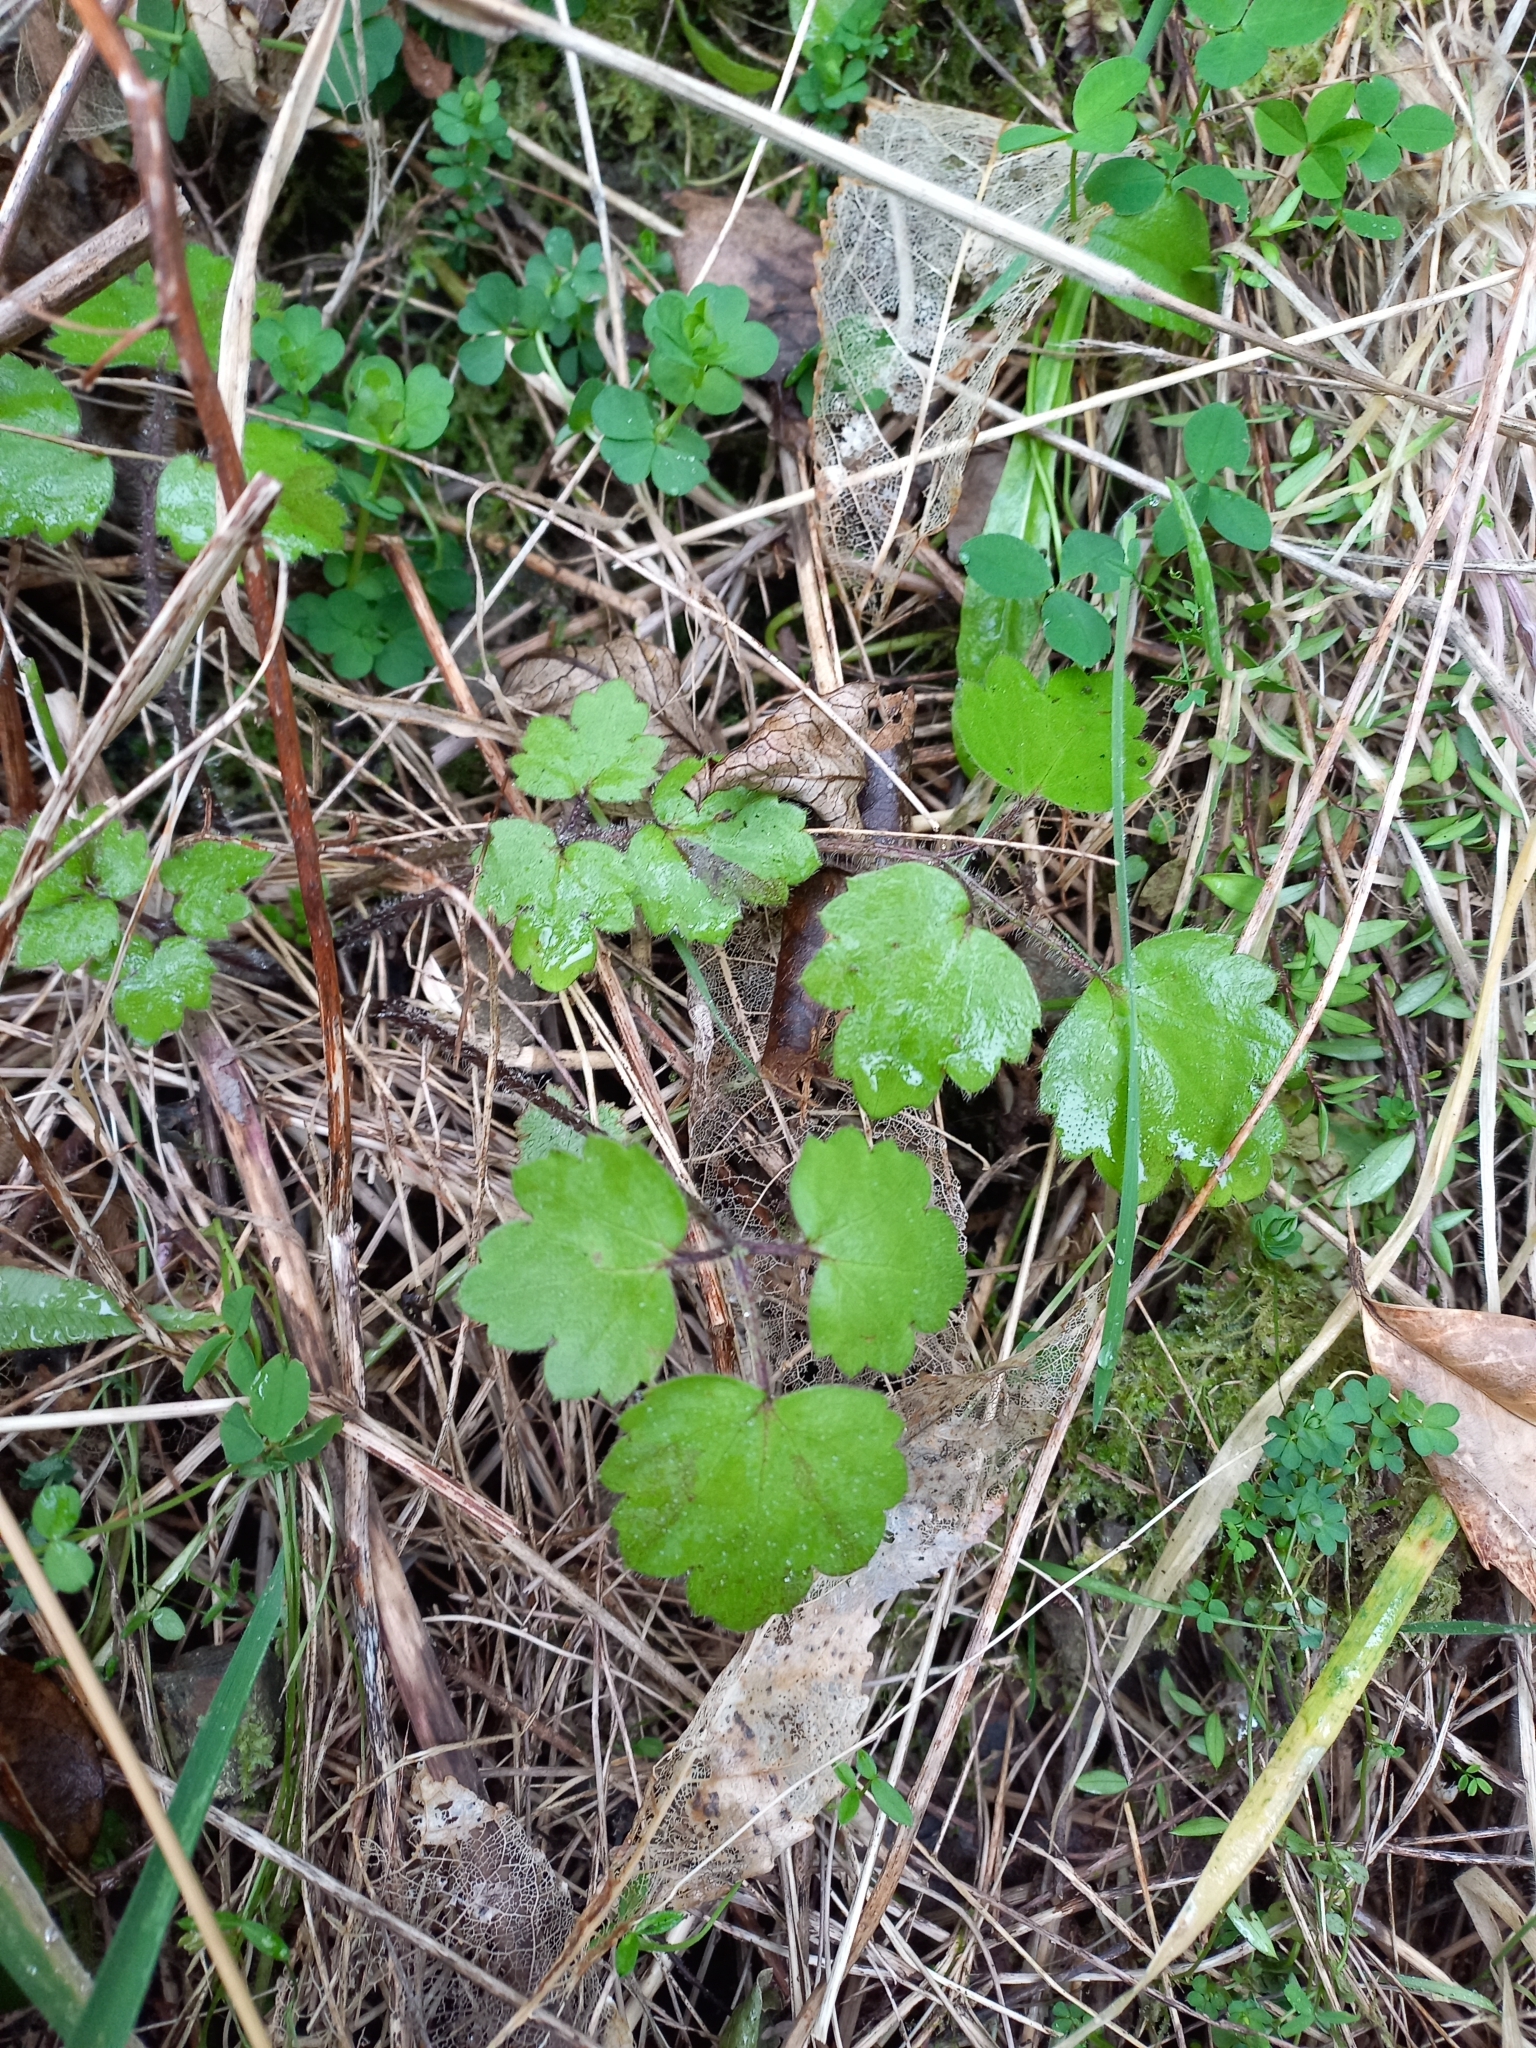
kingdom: Plantae
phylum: Tracheophyta
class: Magnoliopsida
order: Ranunculales
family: Ranunculaceae
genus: Ranunculus
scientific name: Ranunculus reflexus
